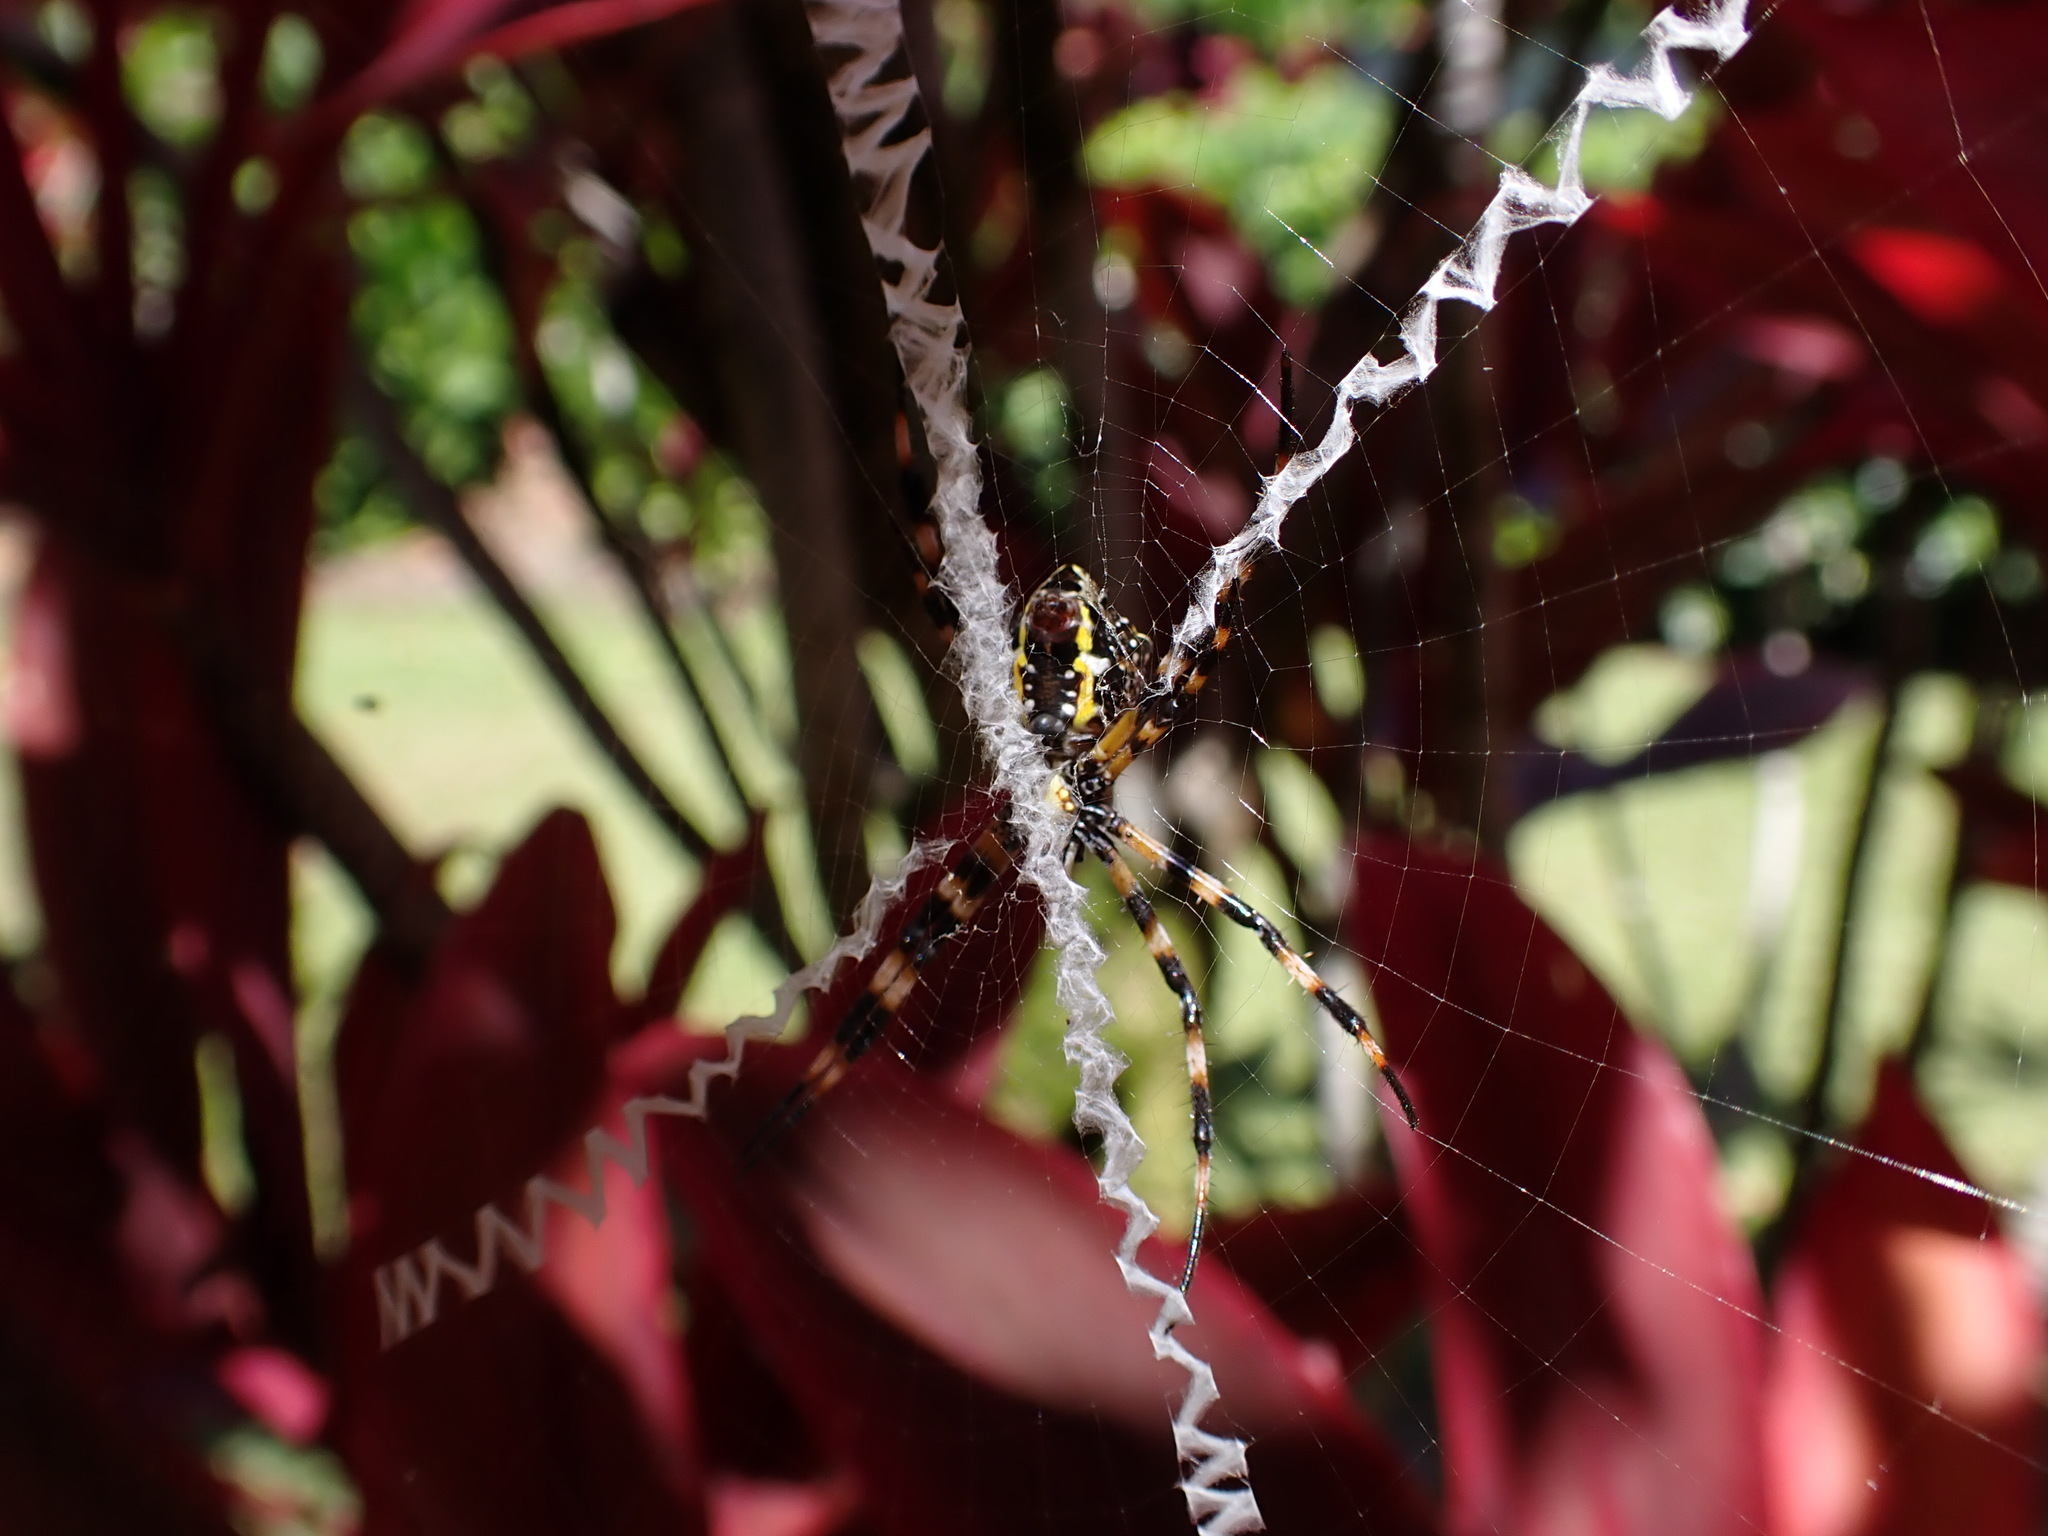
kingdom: Animalia
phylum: Arthropoda
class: Arachnida
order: Araneae
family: Araneidae
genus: Argiope
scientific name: Argiope appensa
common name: Garden spider
